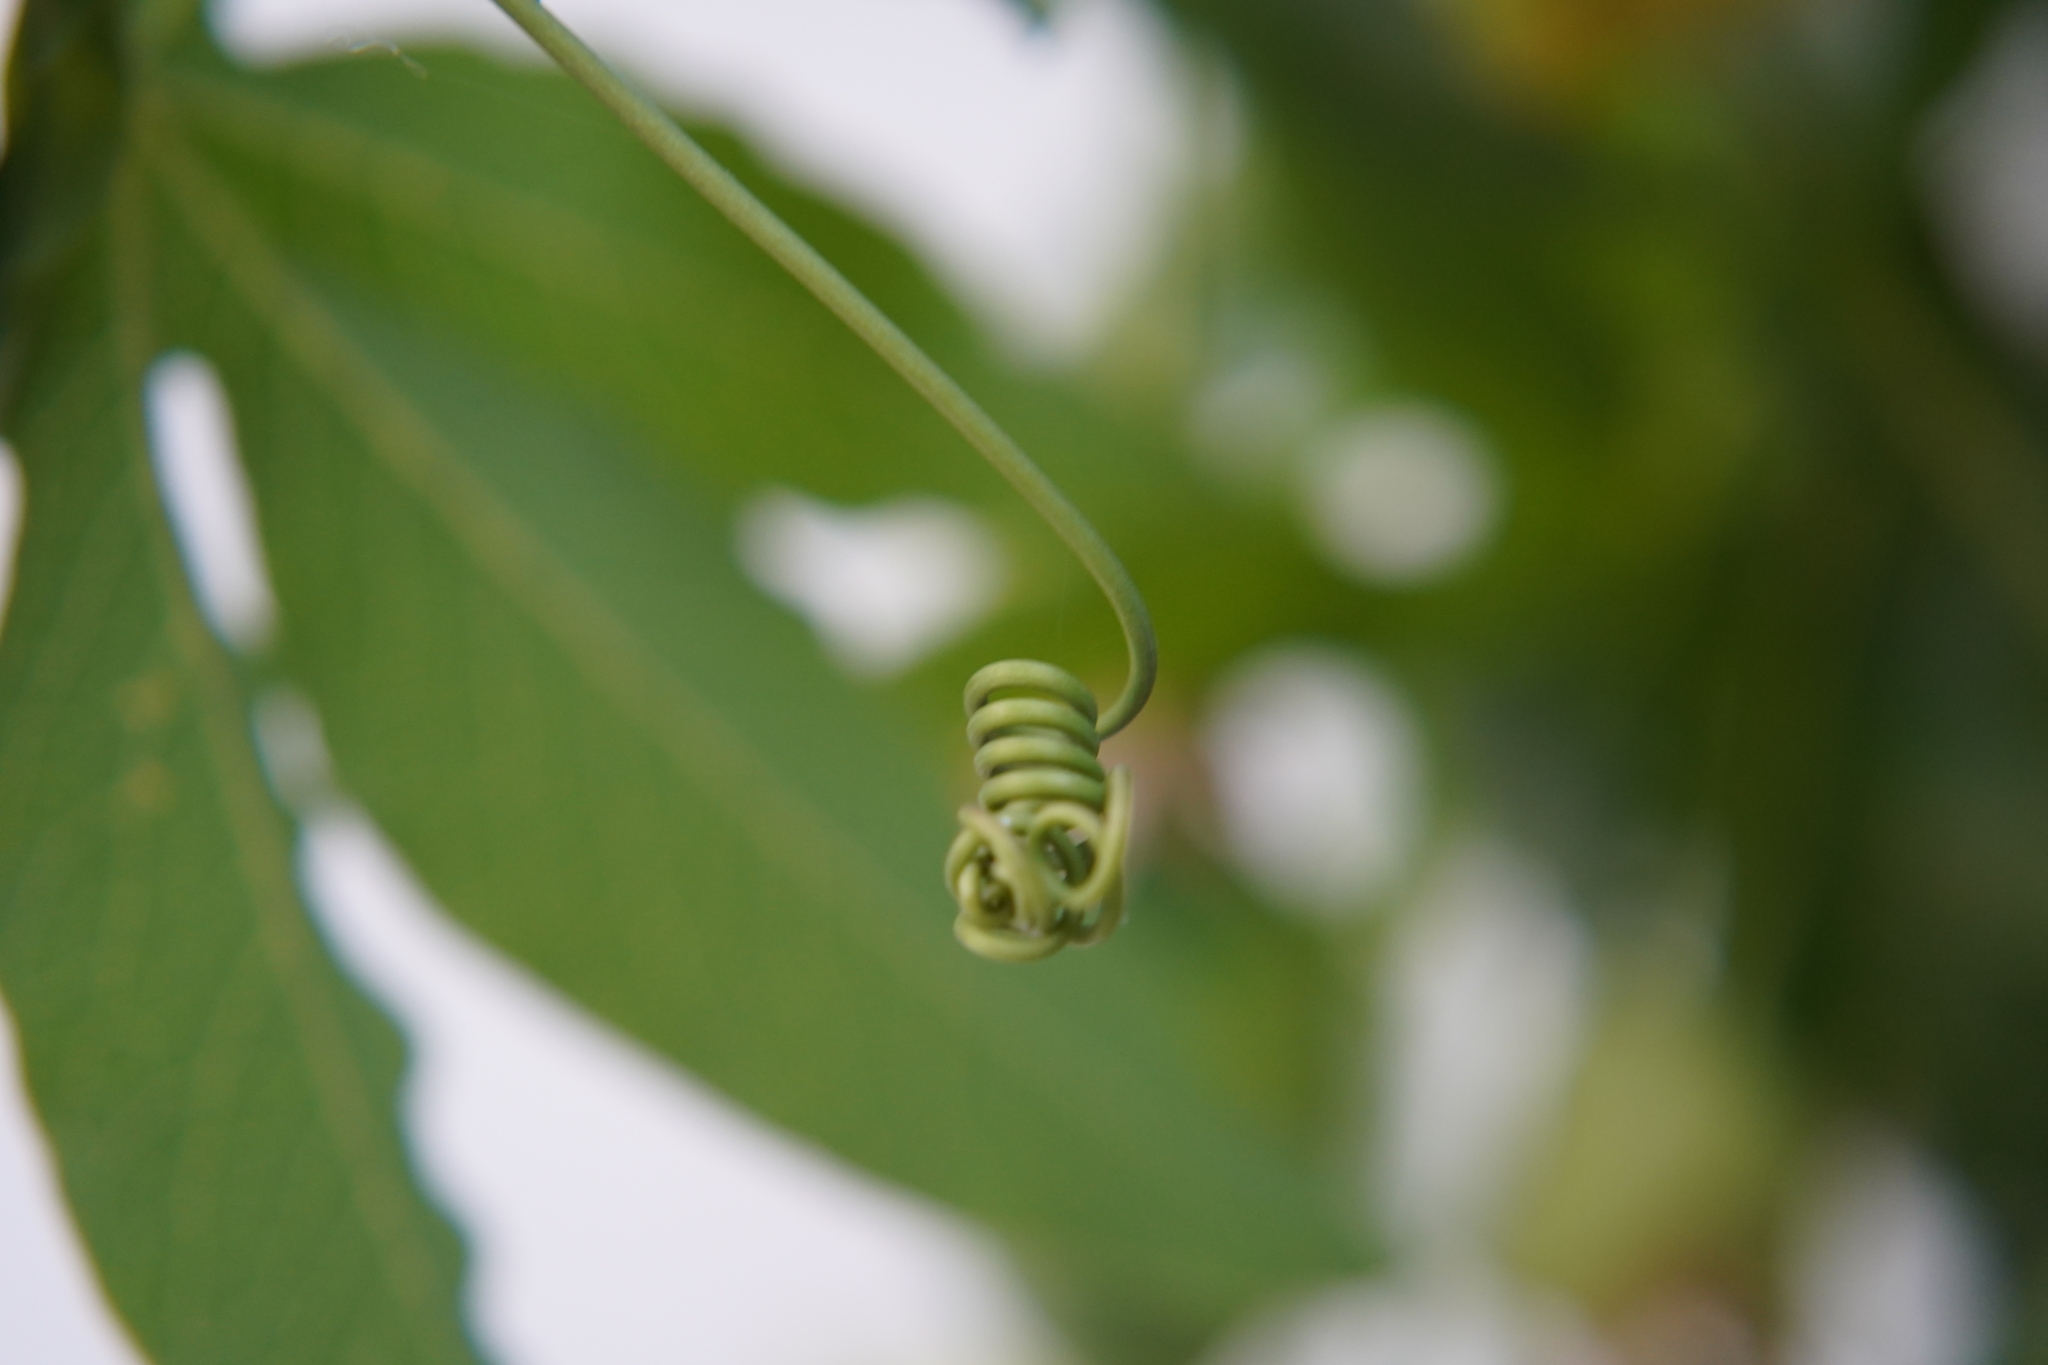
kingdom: Plantae
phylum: Tracheophyta
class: Magnoliopsida
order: Malpighiales
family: Passifloraceae
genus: Passiflora
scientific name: Passiflora caerulea
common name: Blue passionflower
